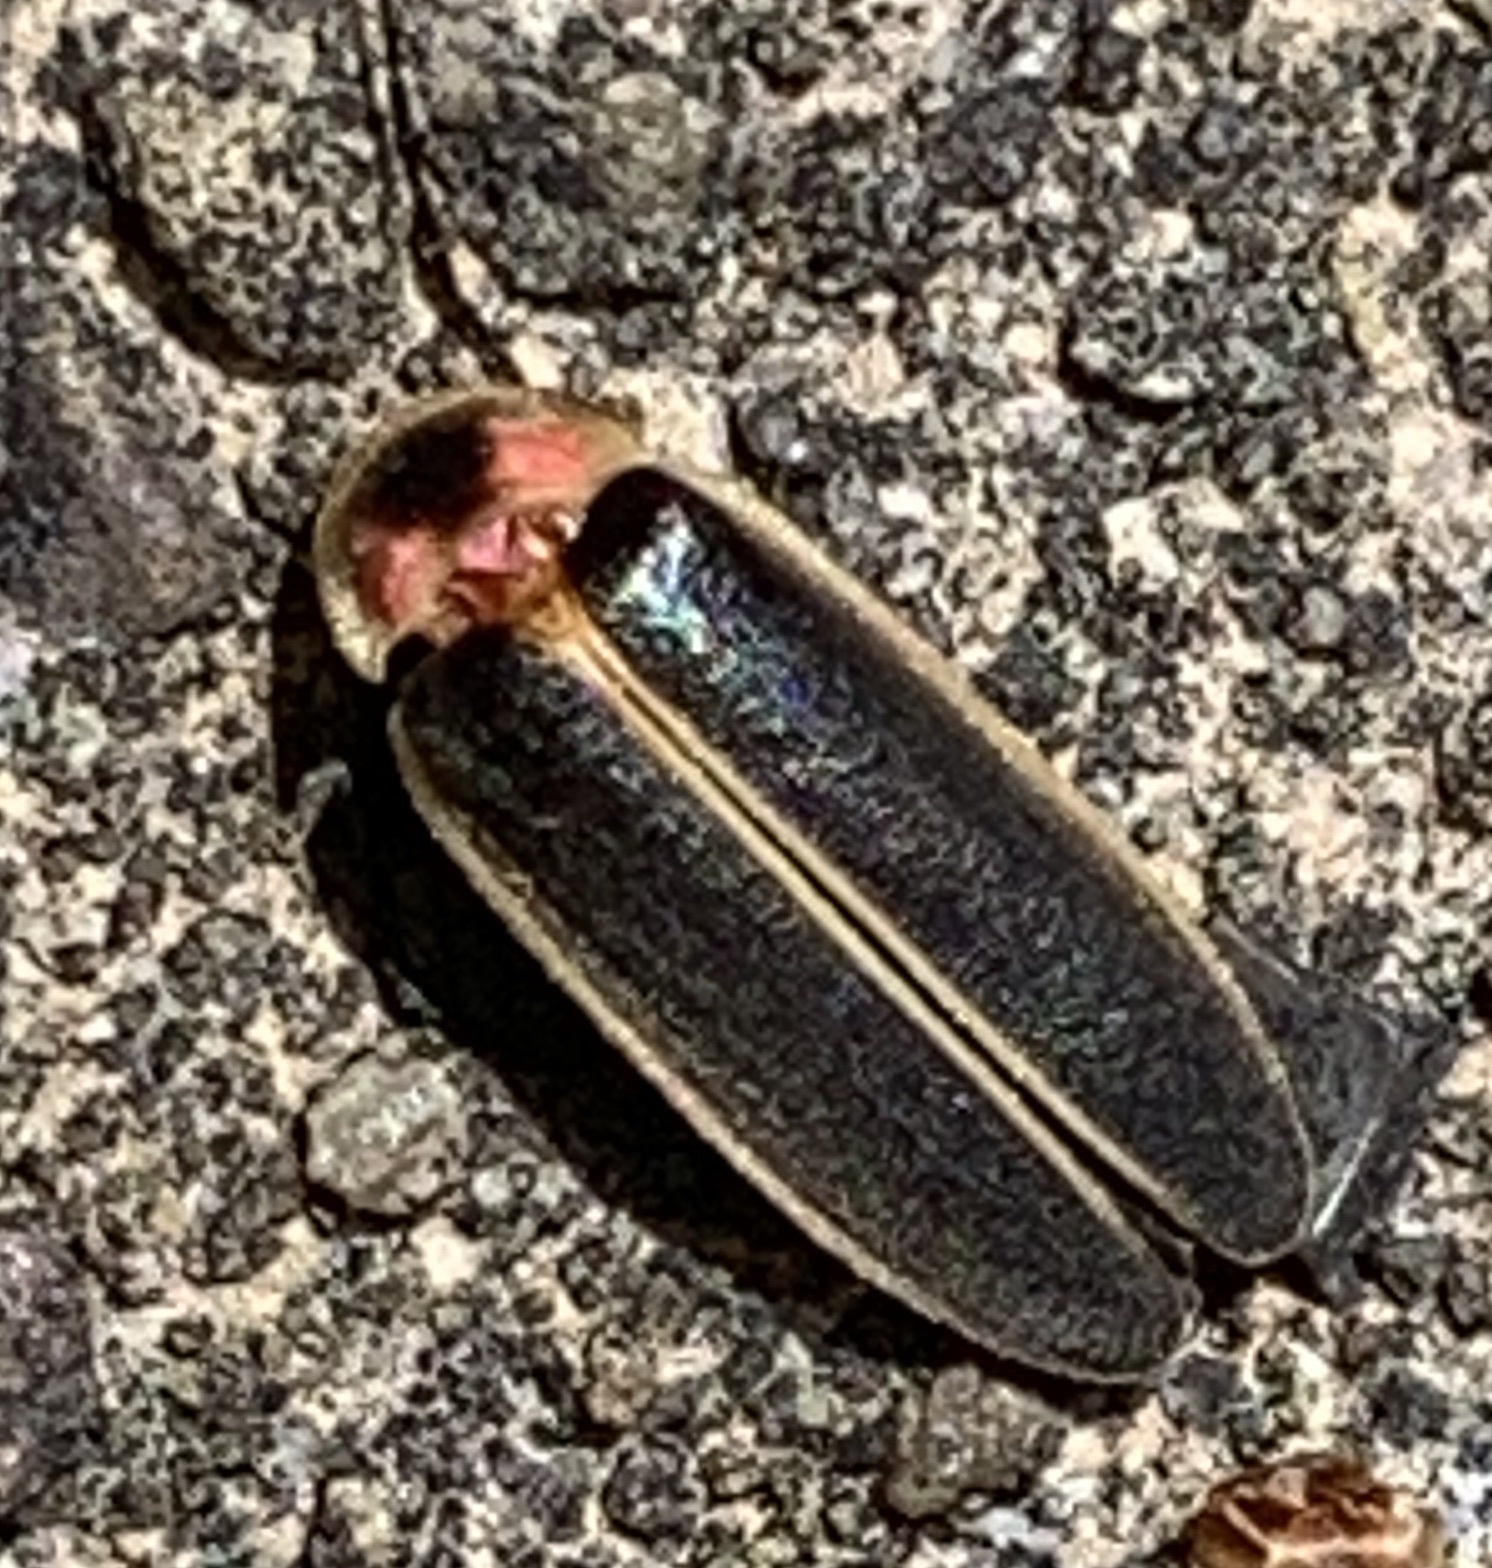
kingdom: Animalia
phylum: Arthropoda
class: Insecta
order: Coleoptera
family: Lampyridae
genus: Photinus
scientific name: Photinus pyralis
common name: Big dipper firefly
